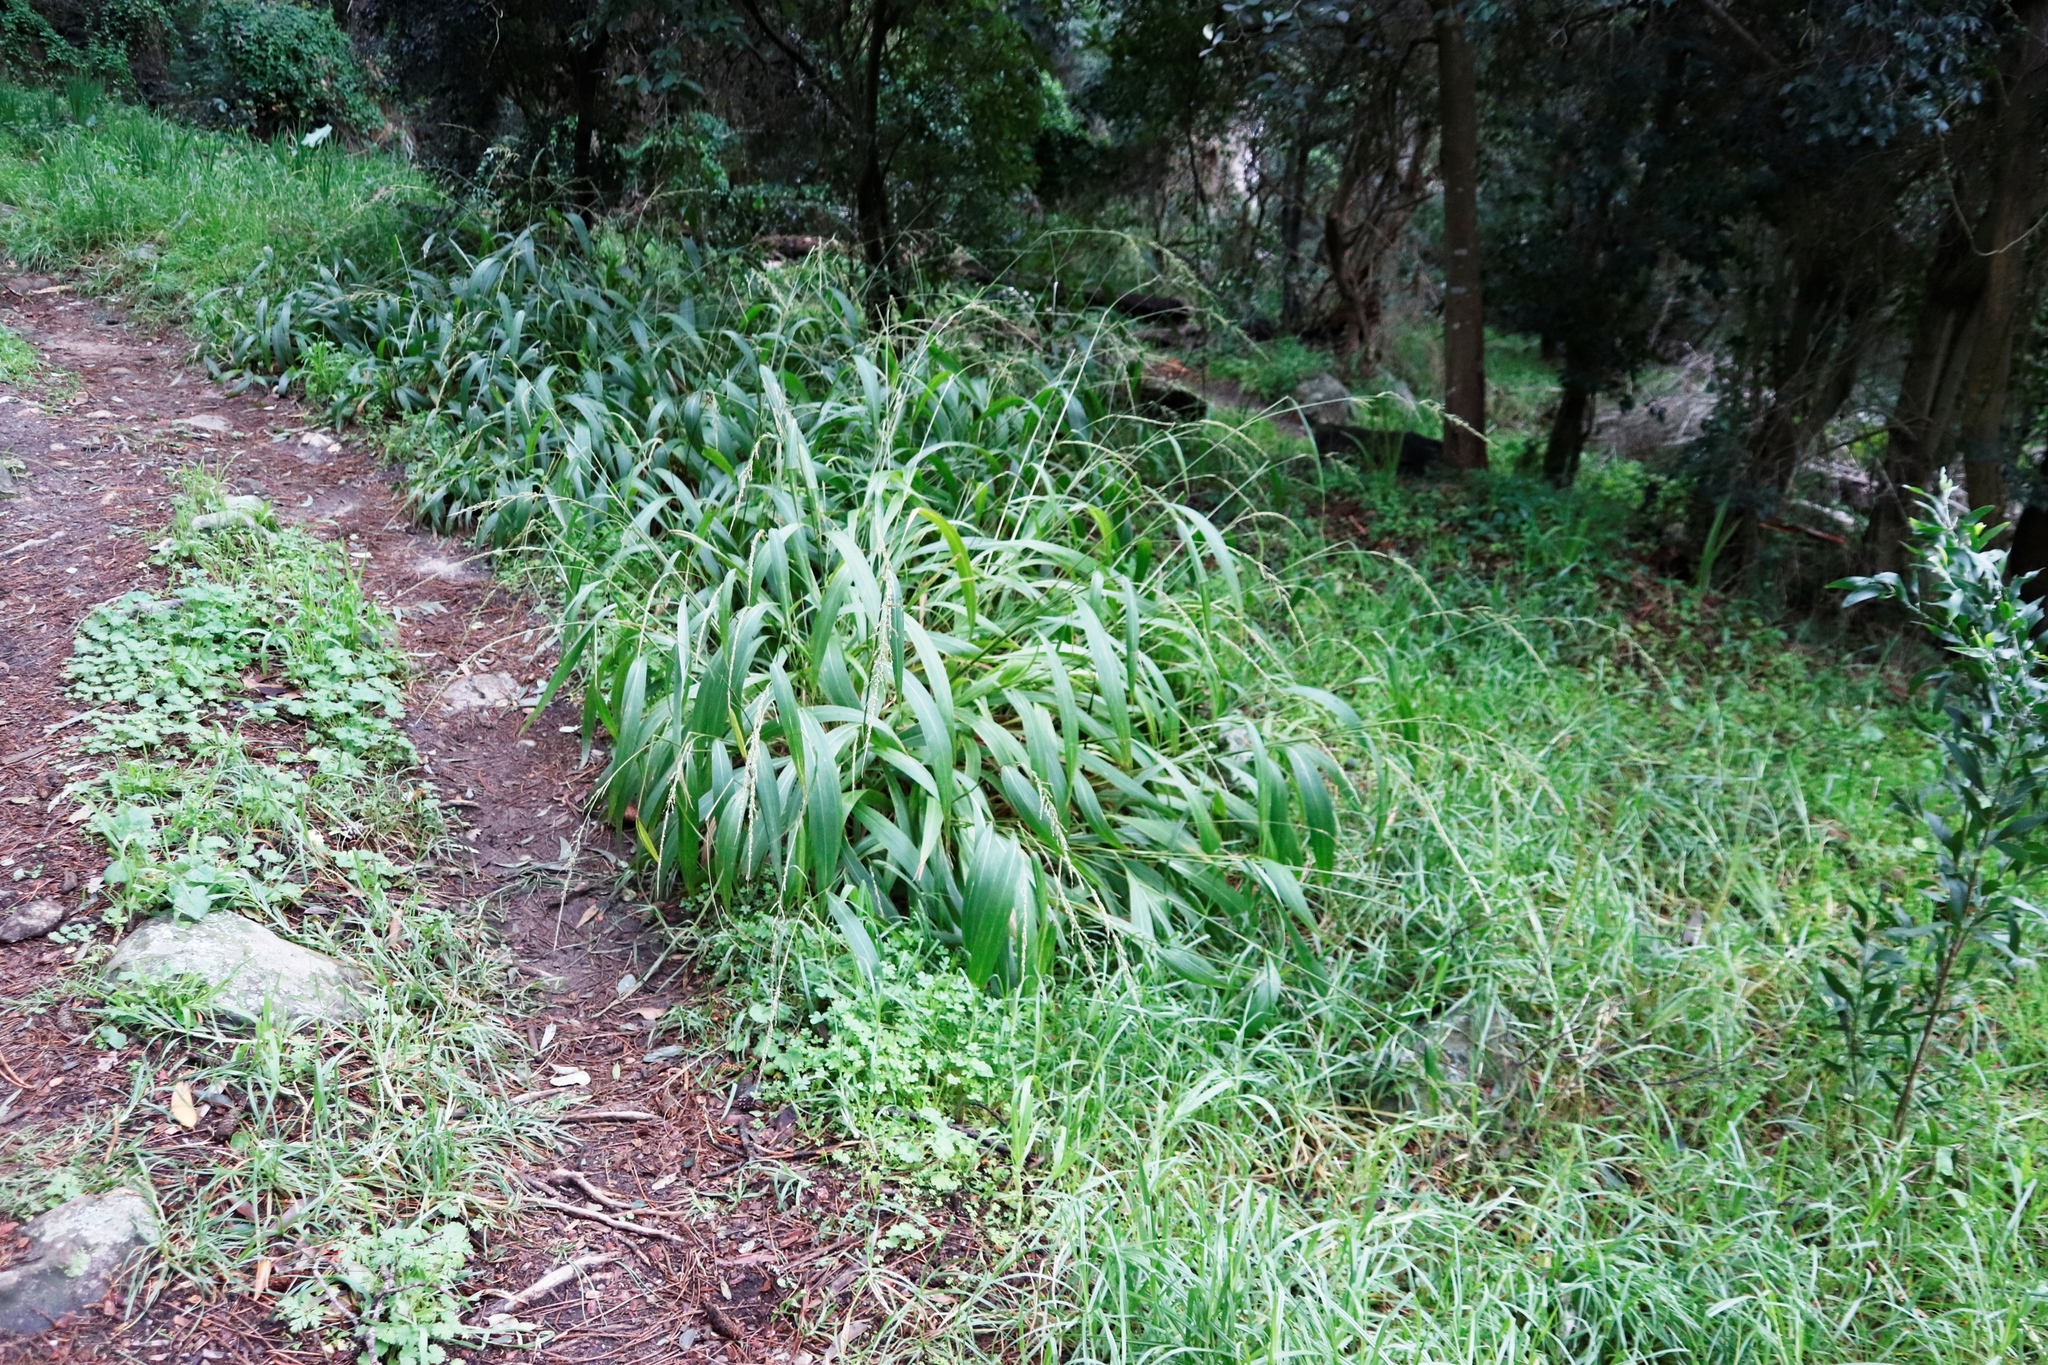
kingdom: Plantae
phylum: Tracheophyta
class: Liliopsida
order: Poales
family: Poaceae
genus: Setaria
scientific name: Setaria megaphylla
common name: Bigleaf bristlegrass
